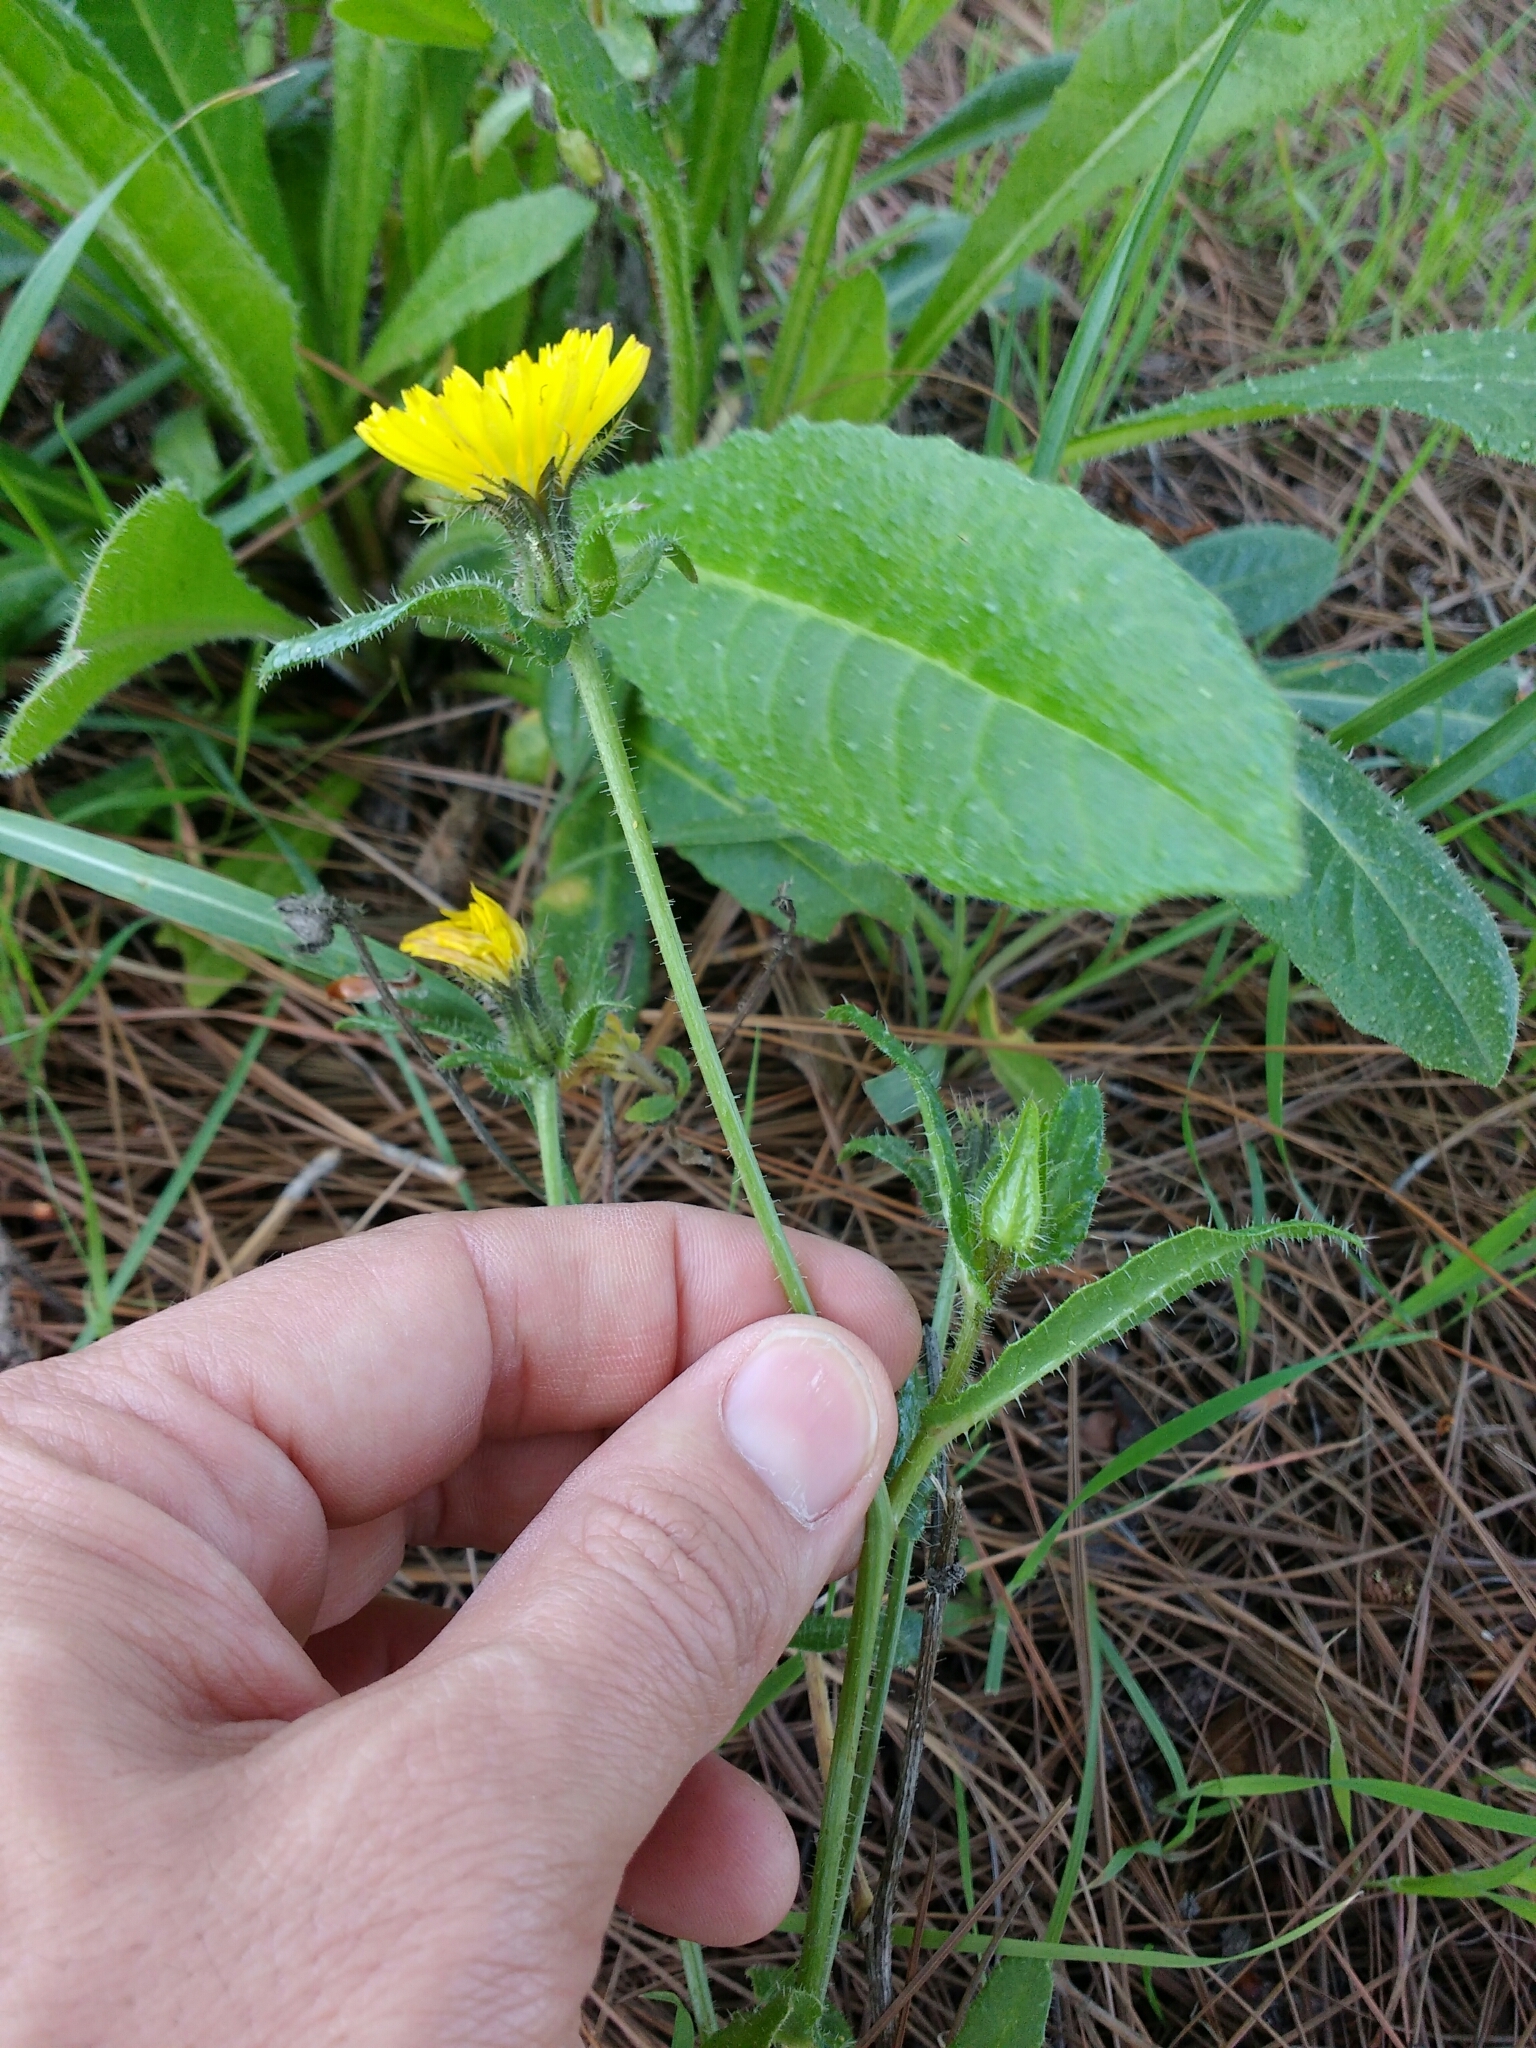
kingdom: Plantae
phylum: Tracheophyta
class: Magnoliopsida
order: Asterales
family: Asteraceae
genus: Helminthotheca
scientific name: Helminthotheca echioides
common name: Ox-tongue
